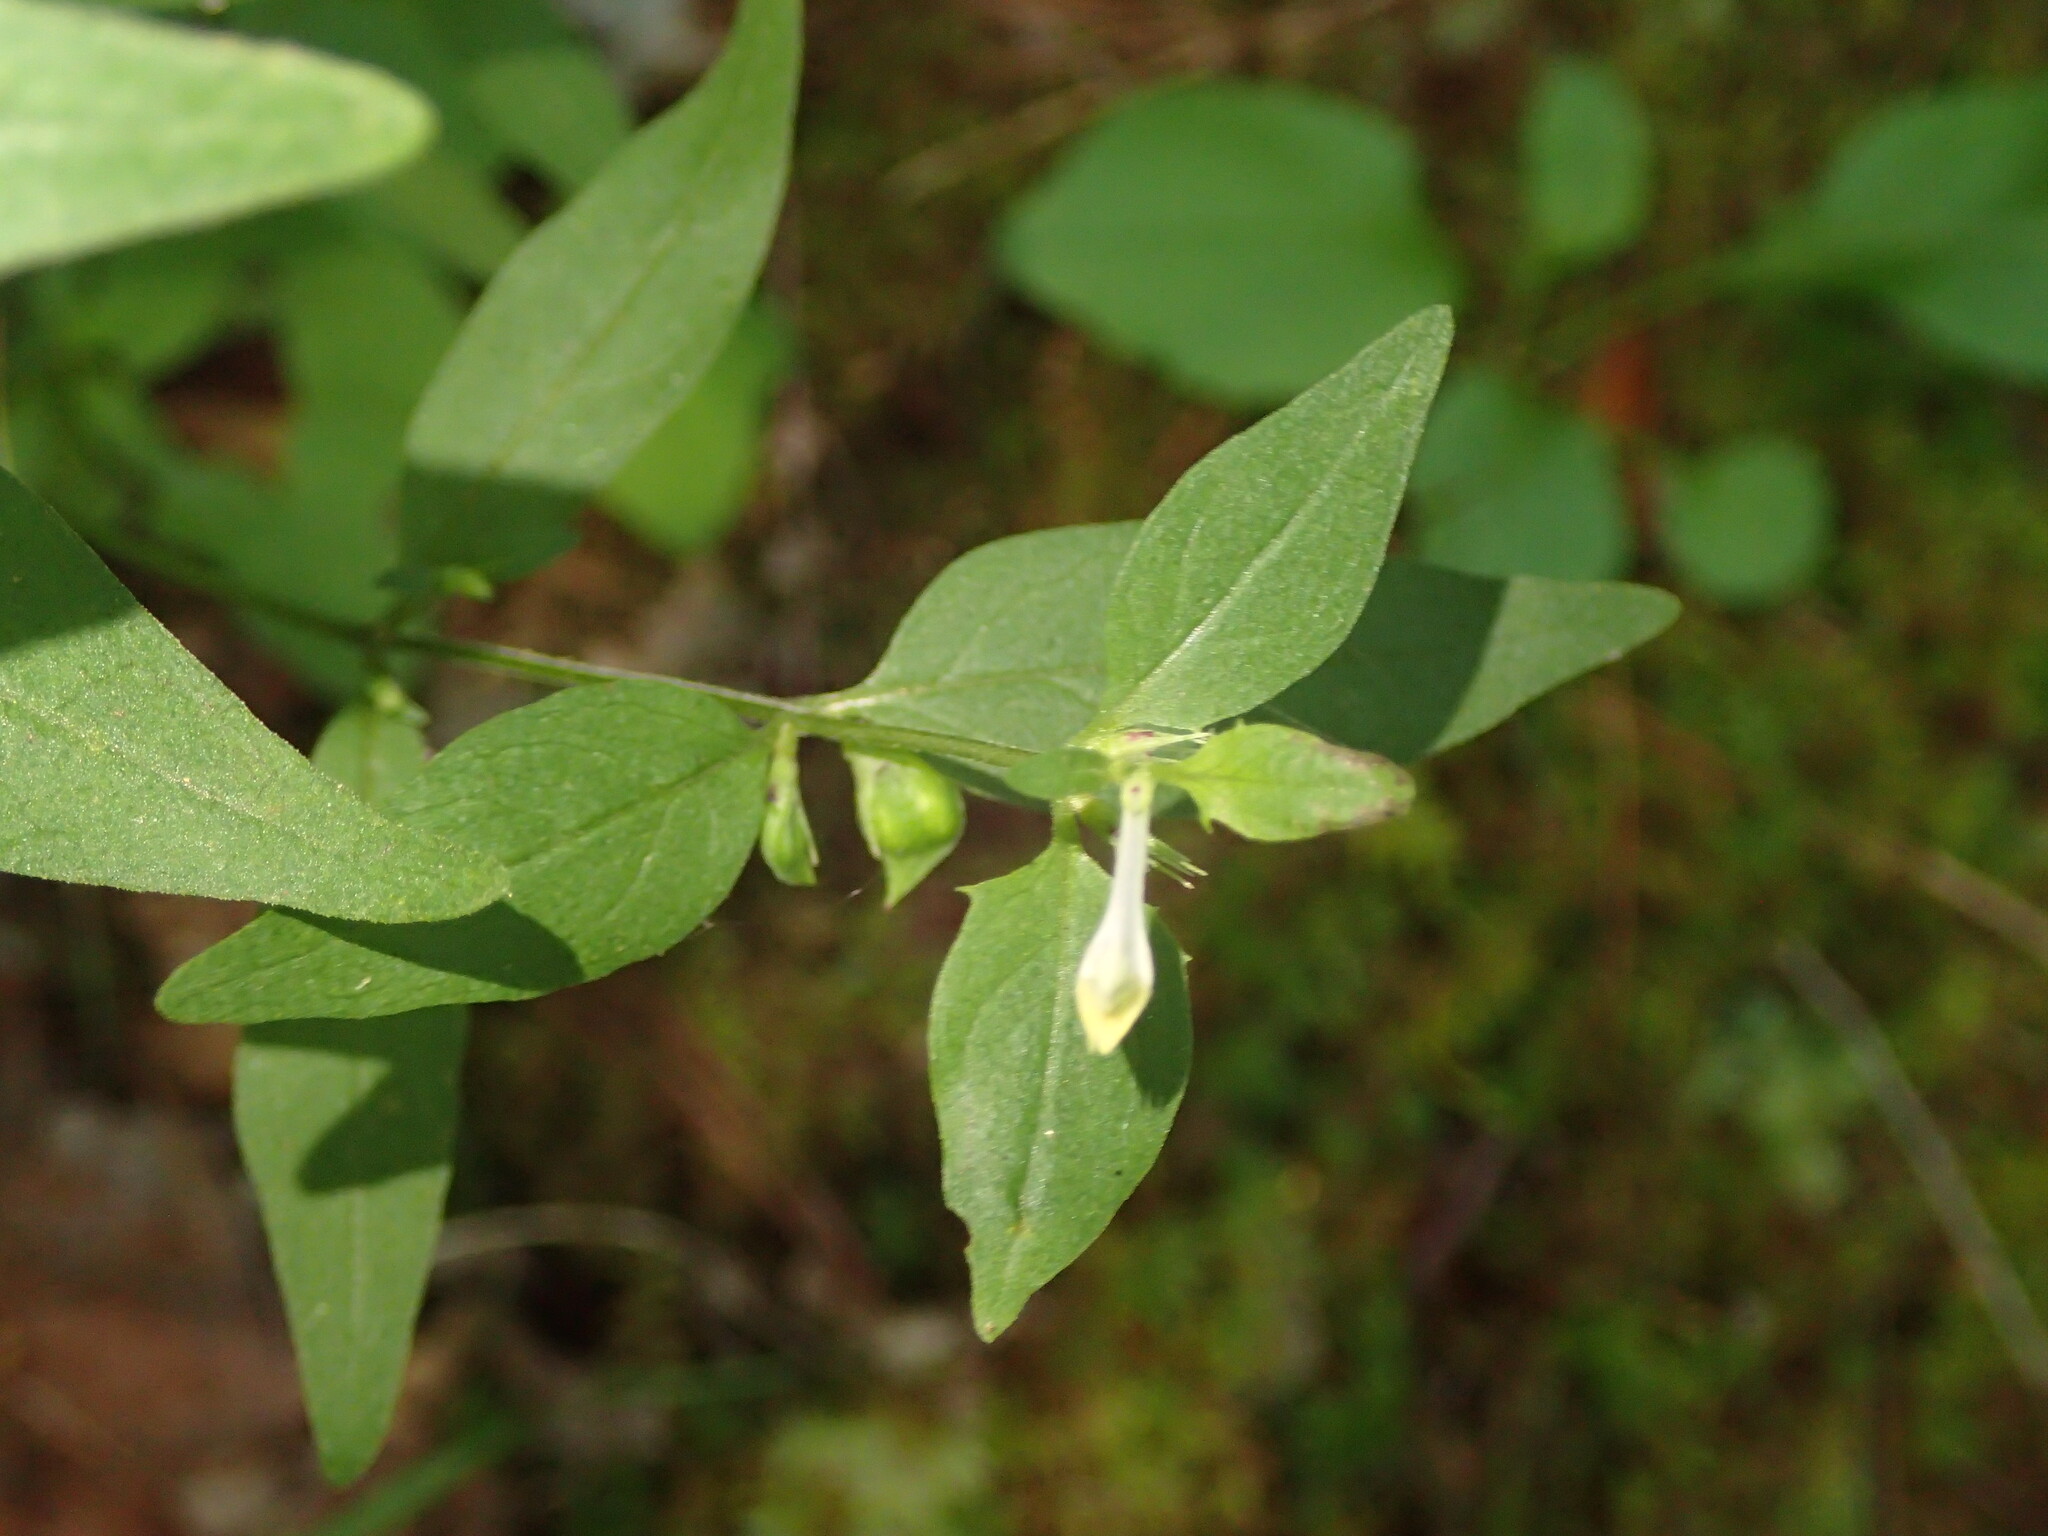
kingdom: Plantae
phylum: Tracheophyta
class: Magnoliopsida
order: Lamiales
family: Orobanchaceae
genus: Melampyrum
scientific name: Melampyrum lineare
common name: American cow-wheat
